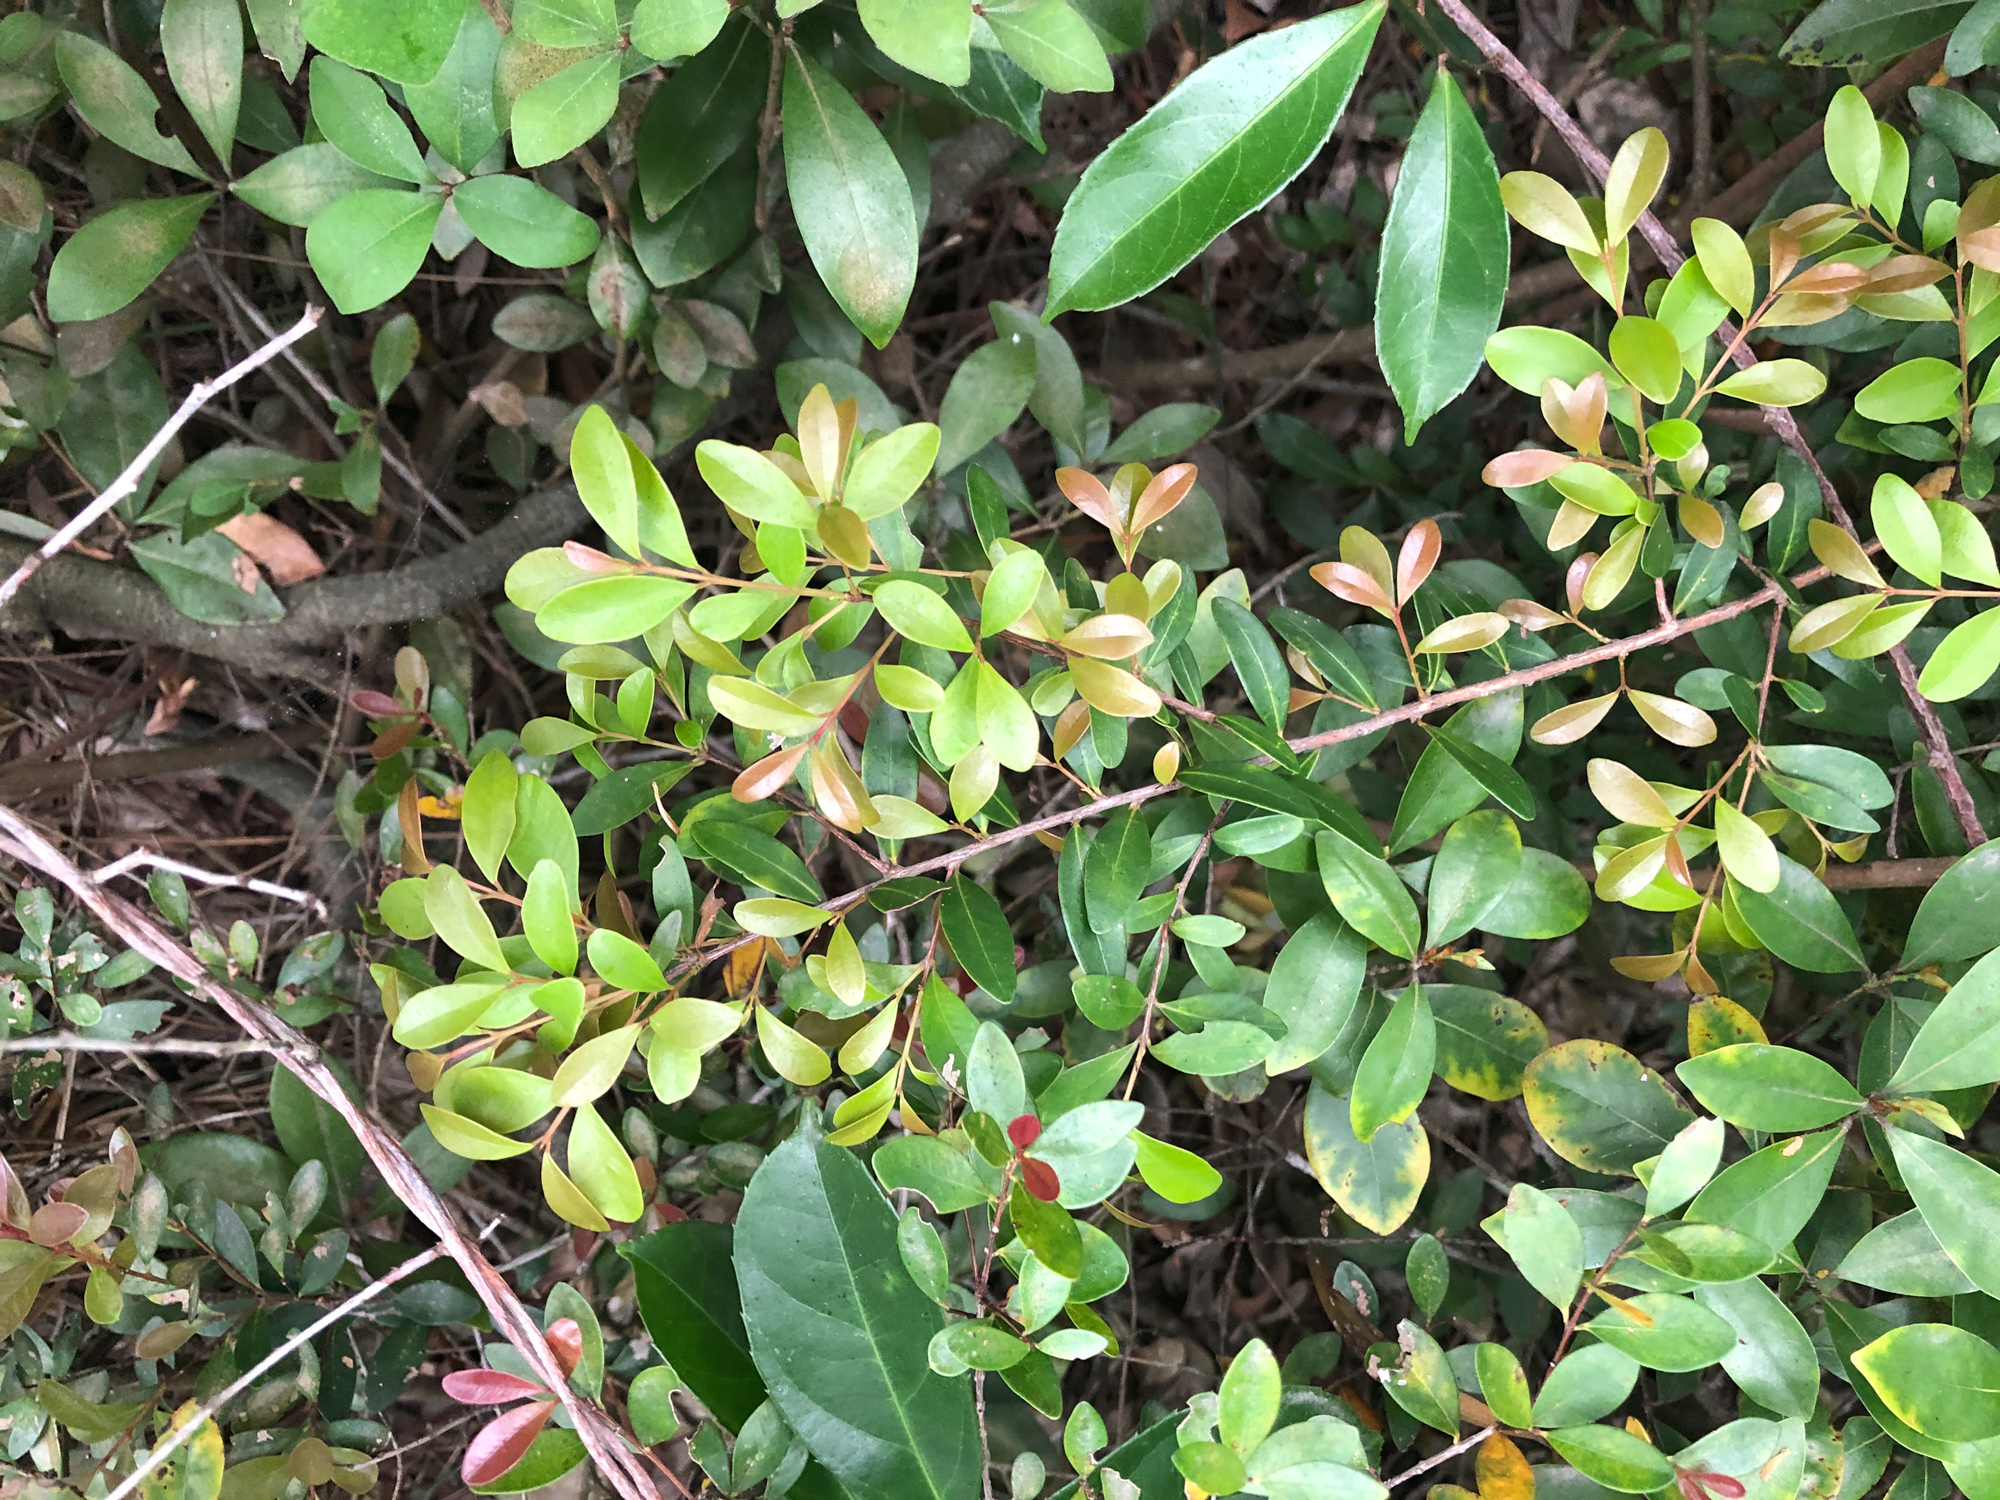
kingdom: Plantae
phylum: Tracheophyta
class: Magnoliopsida
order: Myrtales
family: Myrtaceae
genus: Syzygium
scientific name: Syzygium buxifolium
